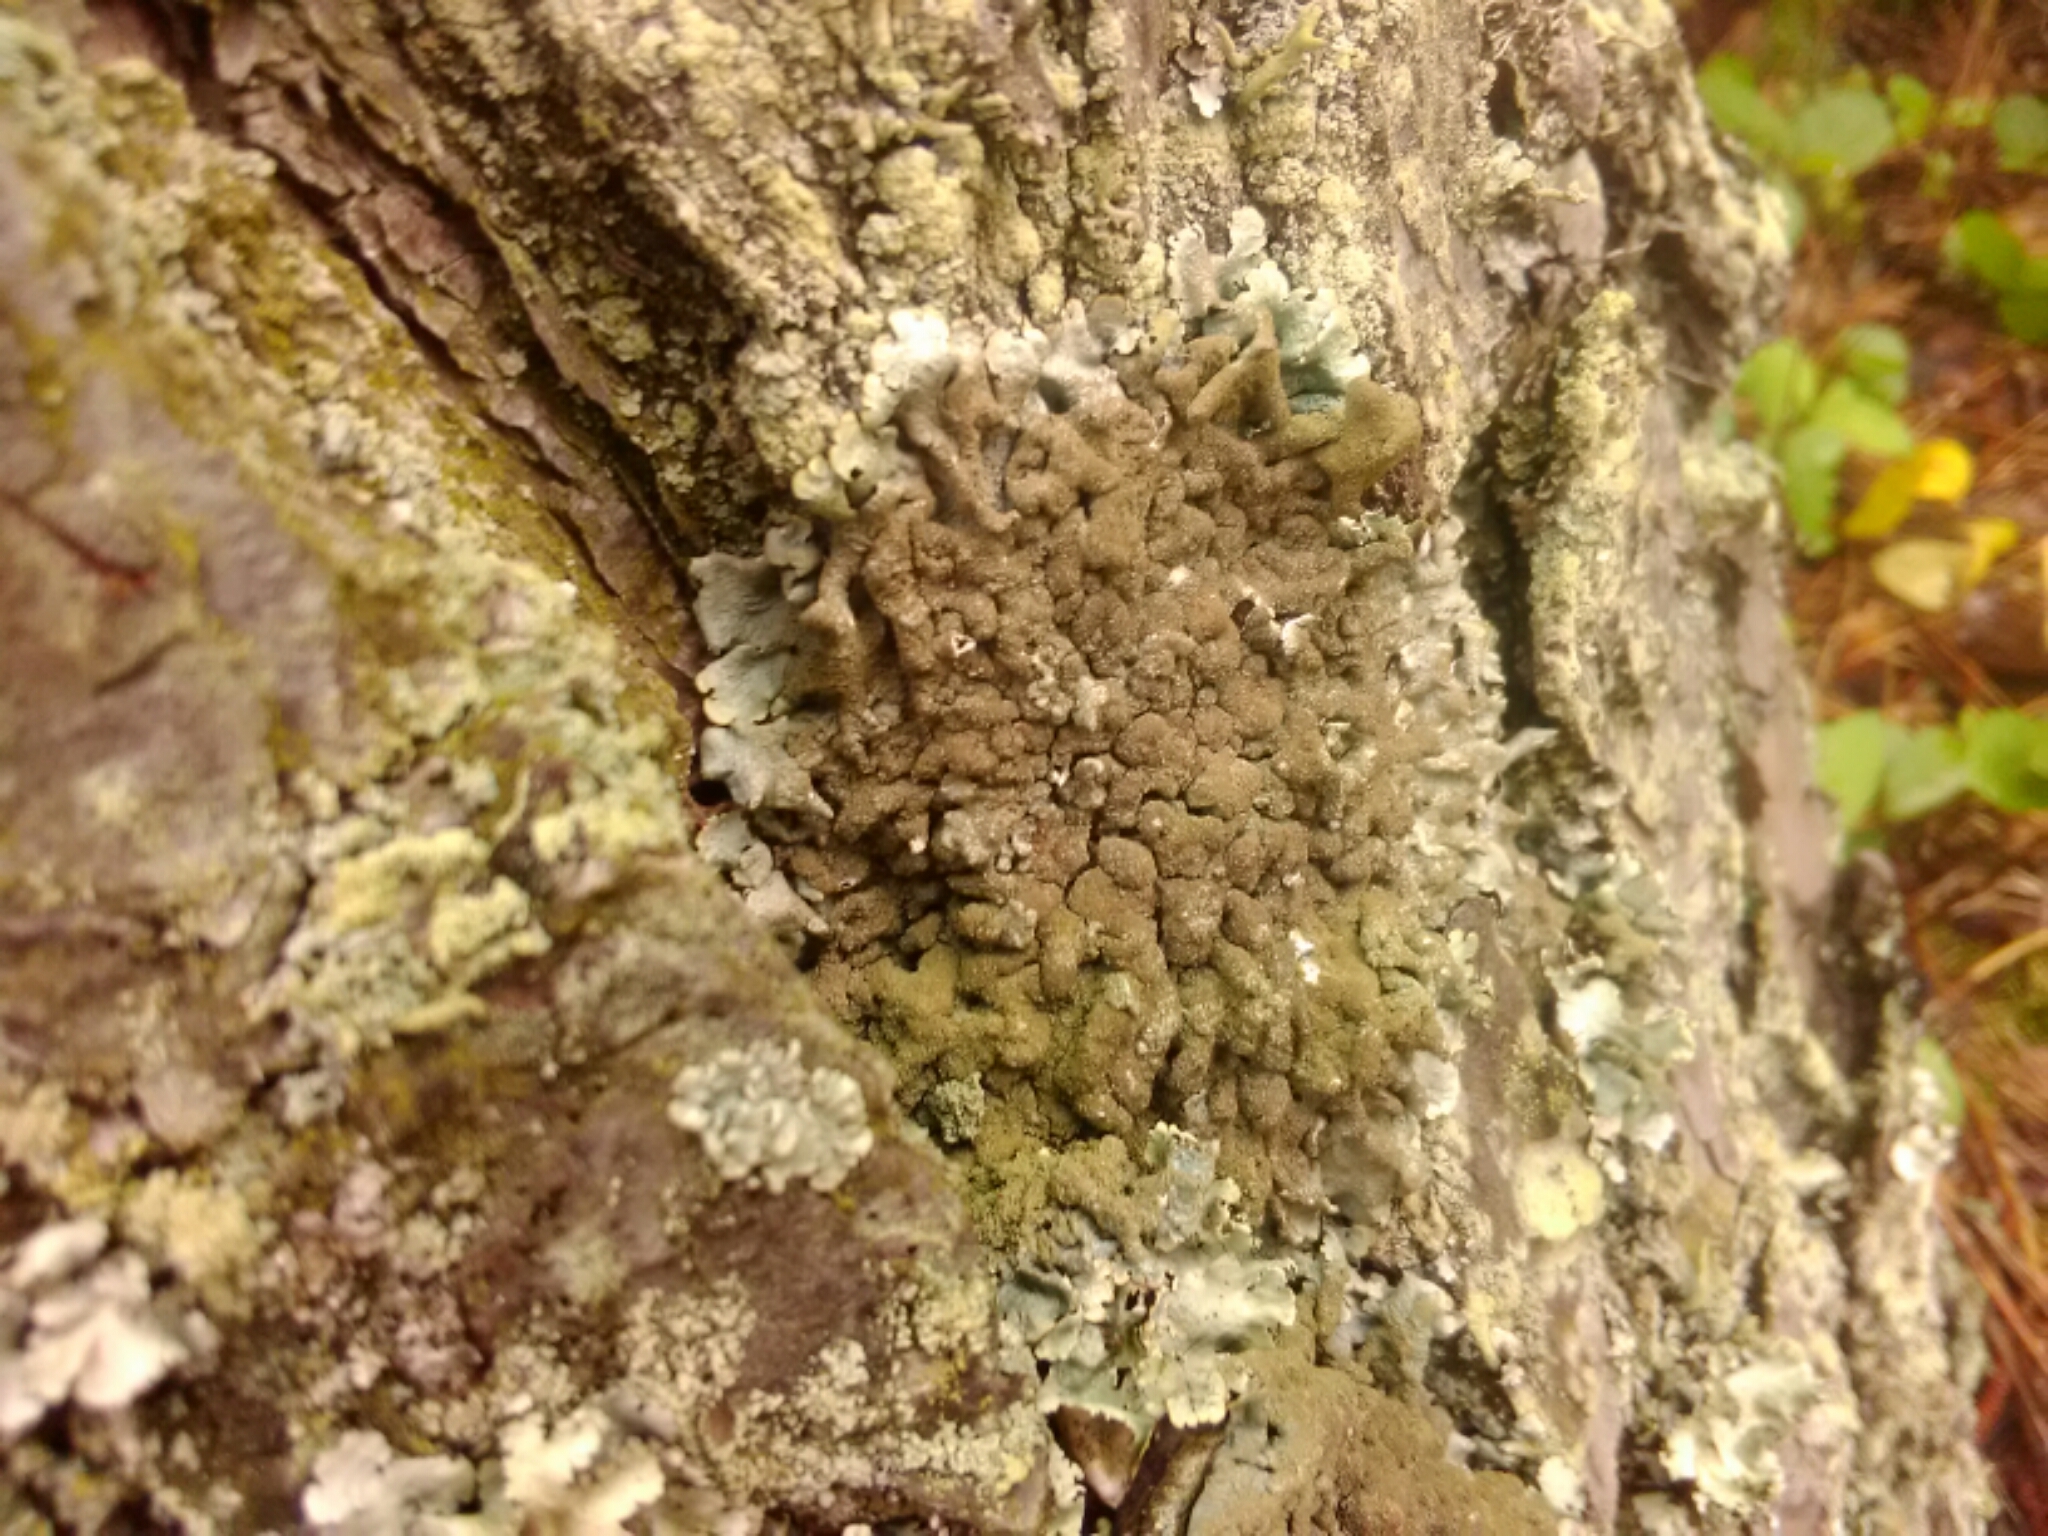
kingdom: Fungi
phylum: Ascomycota
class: Lecanoromycetes
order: Lecanorales
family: Parmeliaceae
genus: Hypotrachyna
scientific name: Hypotrachyna minarum
